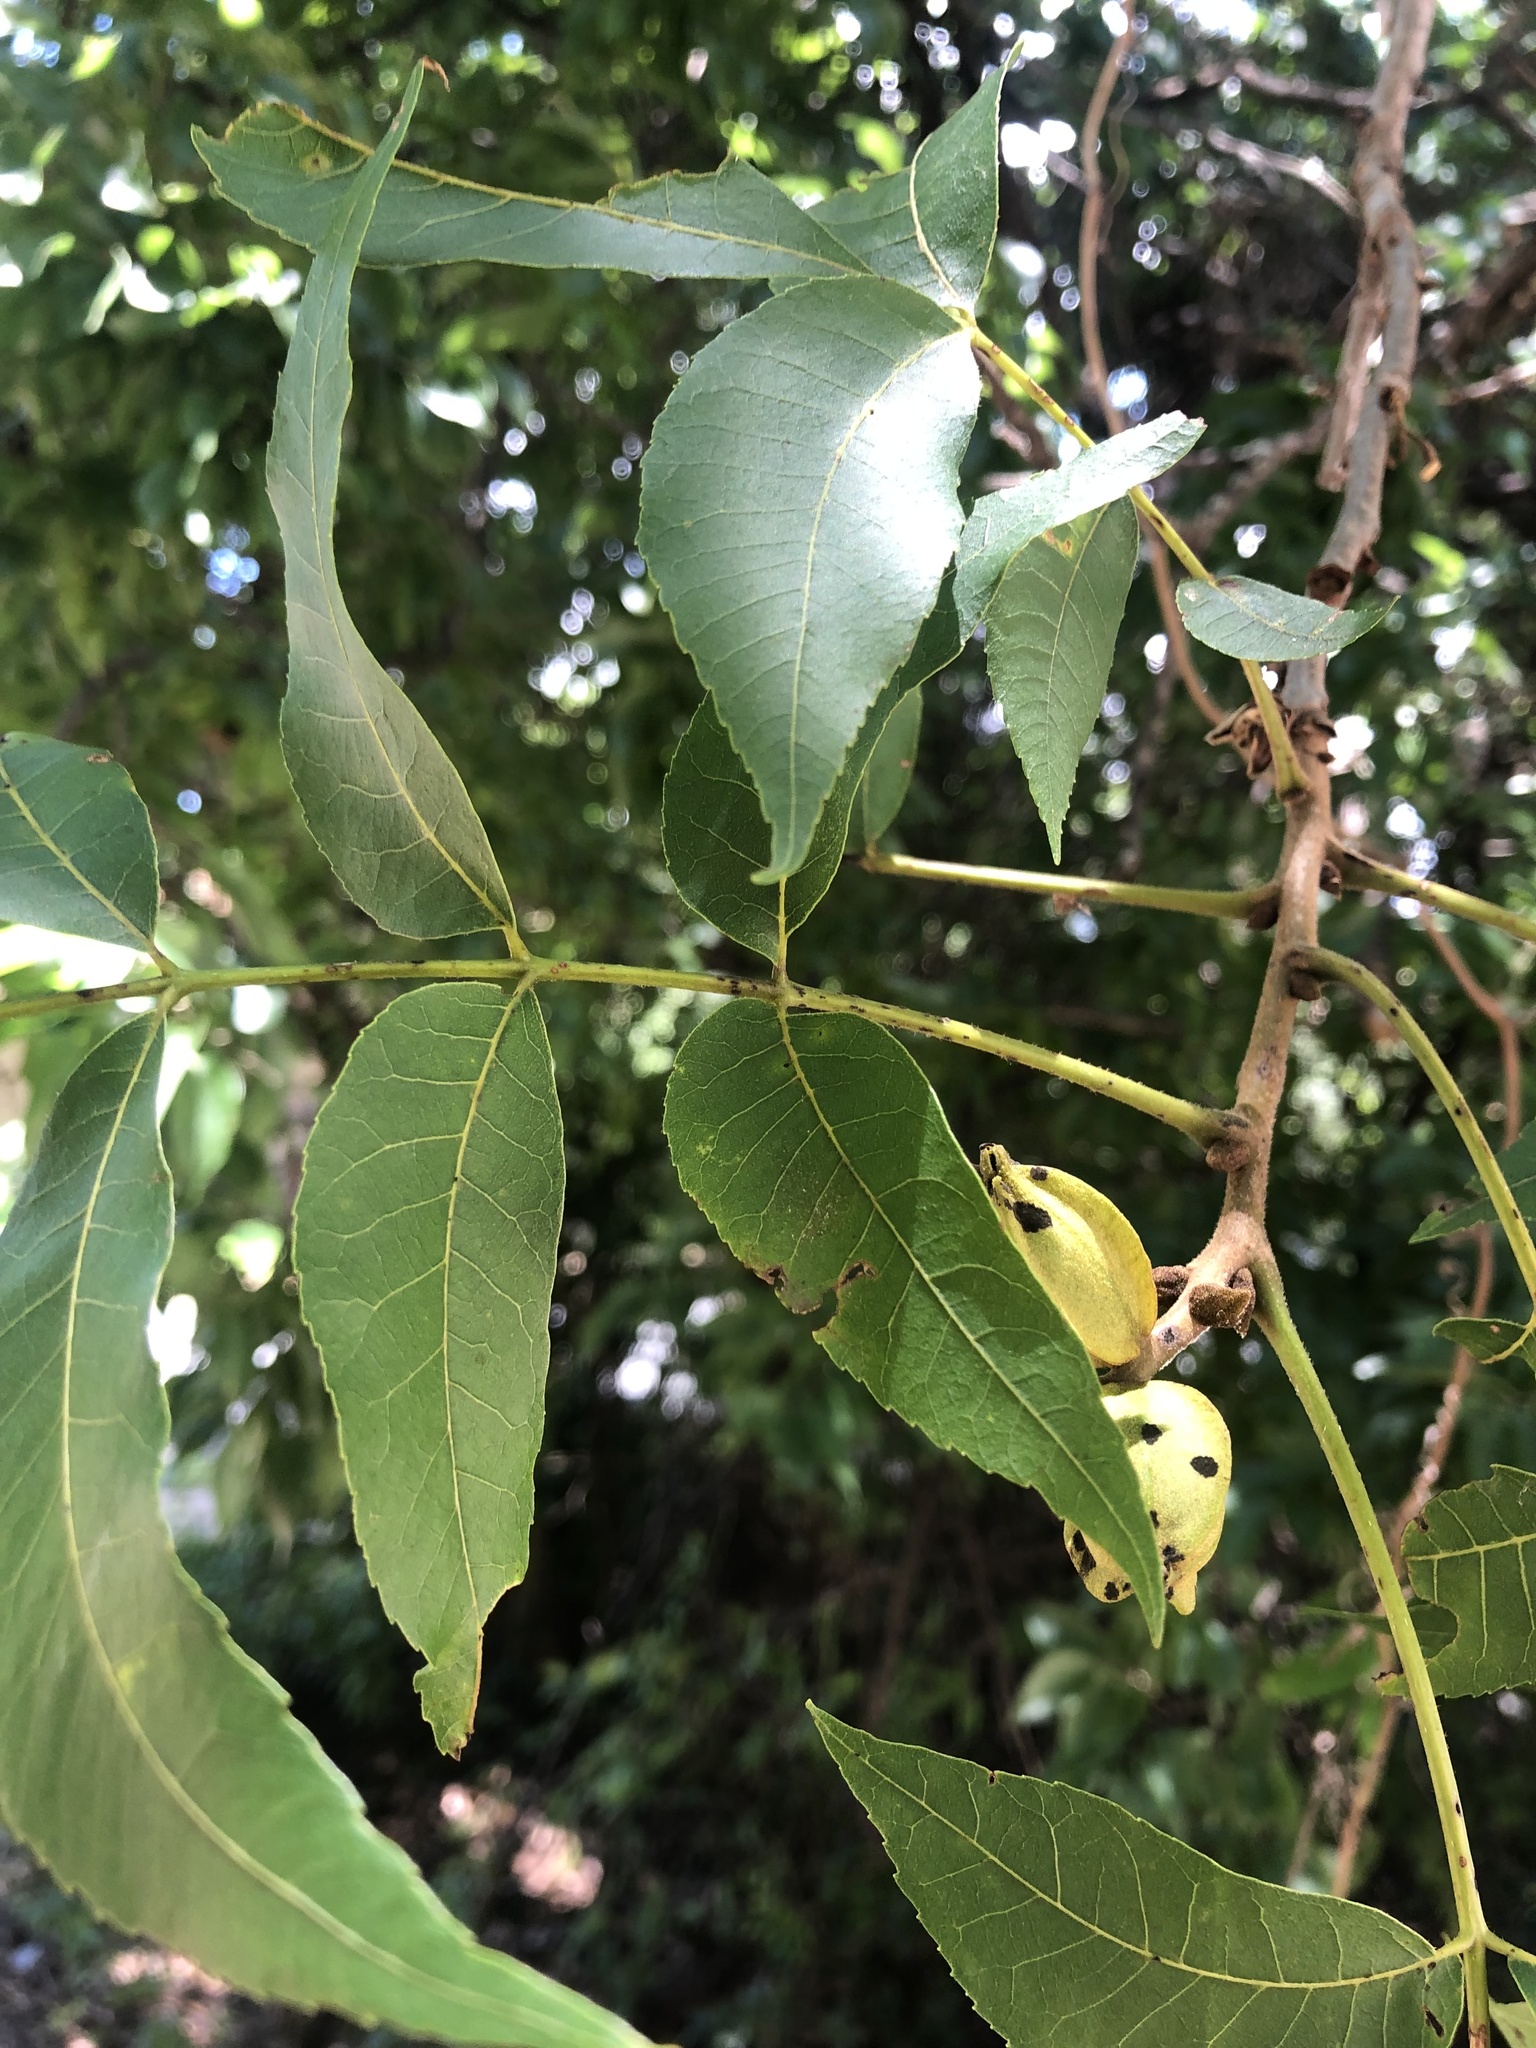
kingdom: Plantae
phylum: Tracheophyta
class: Magnoliopsida
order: Fagales
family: Juglandaceae
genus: Carya
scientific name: Carya illinoinensis
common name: Pecan
